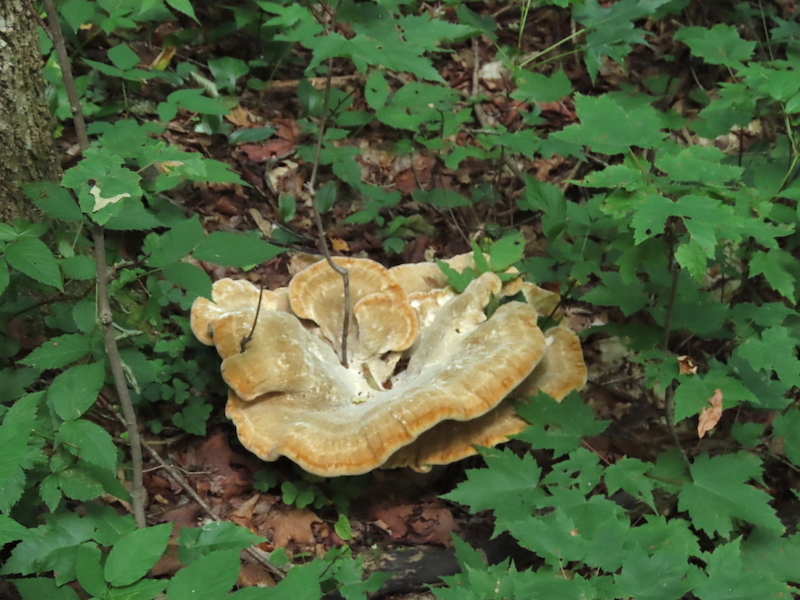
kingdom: Fungi
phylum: Basidiomycota
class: Agaricomycetes
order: Russulales
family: Bondarzewiaceae
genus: Bondarzewia
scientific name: Bondarzewia berkeleyi
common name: Berkeley's polypore
